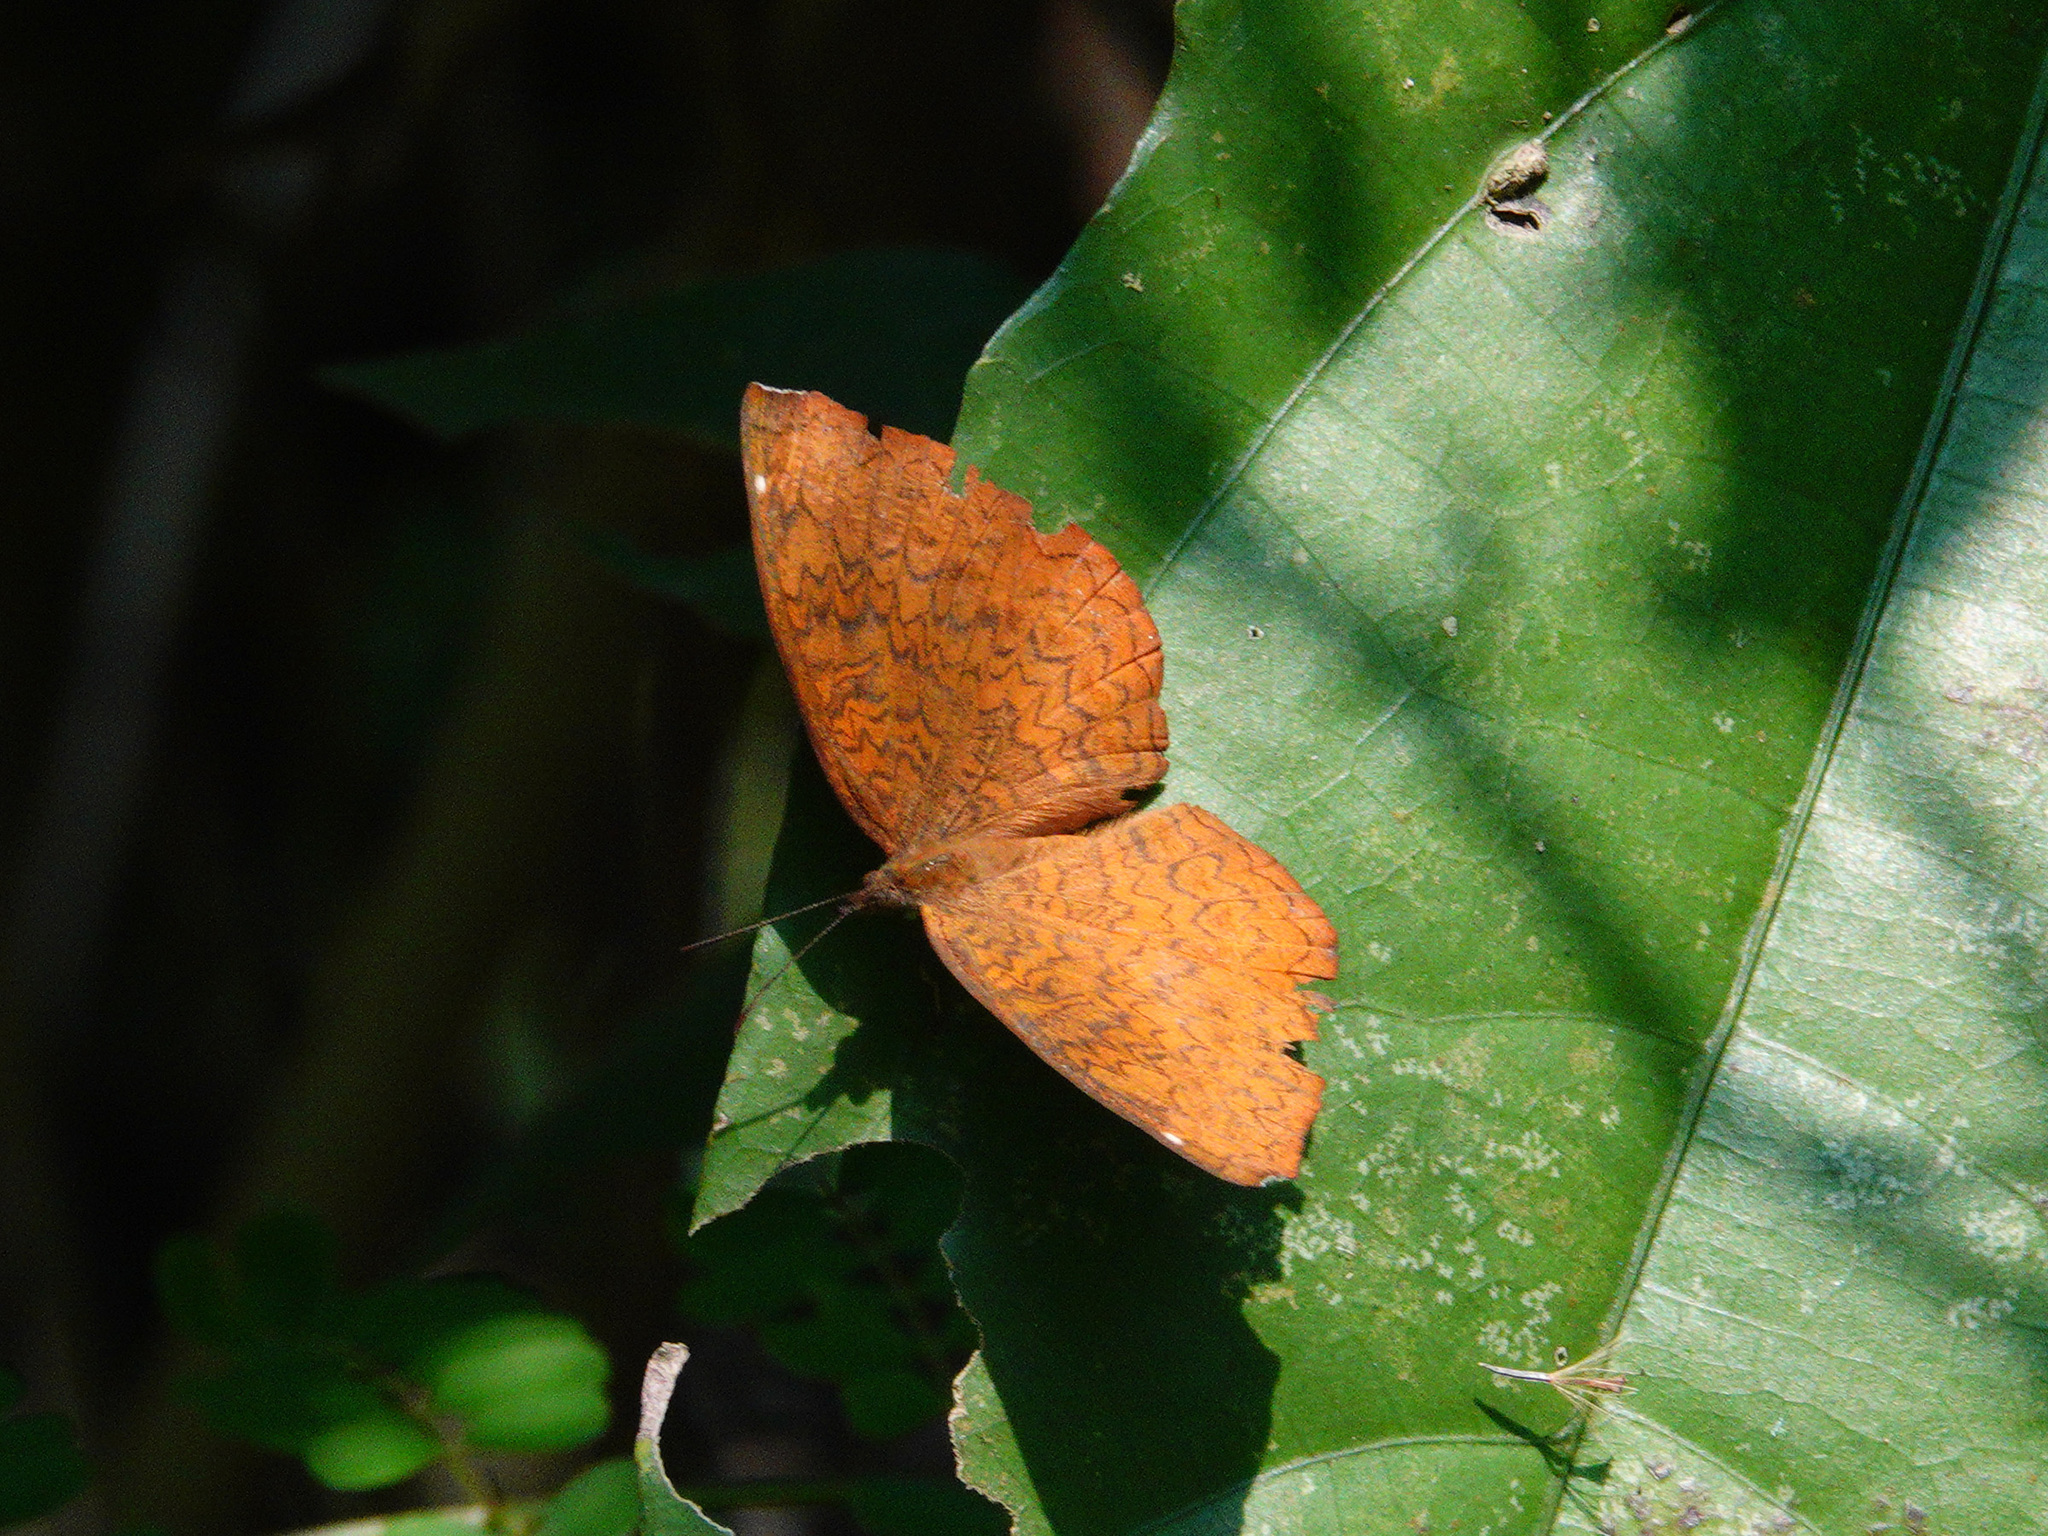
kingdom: Animalia
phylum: Arthropoda
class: Insecta
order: Lepidoptera
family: Nymphalidae
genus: Ariadne
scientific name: Ariadne merione
